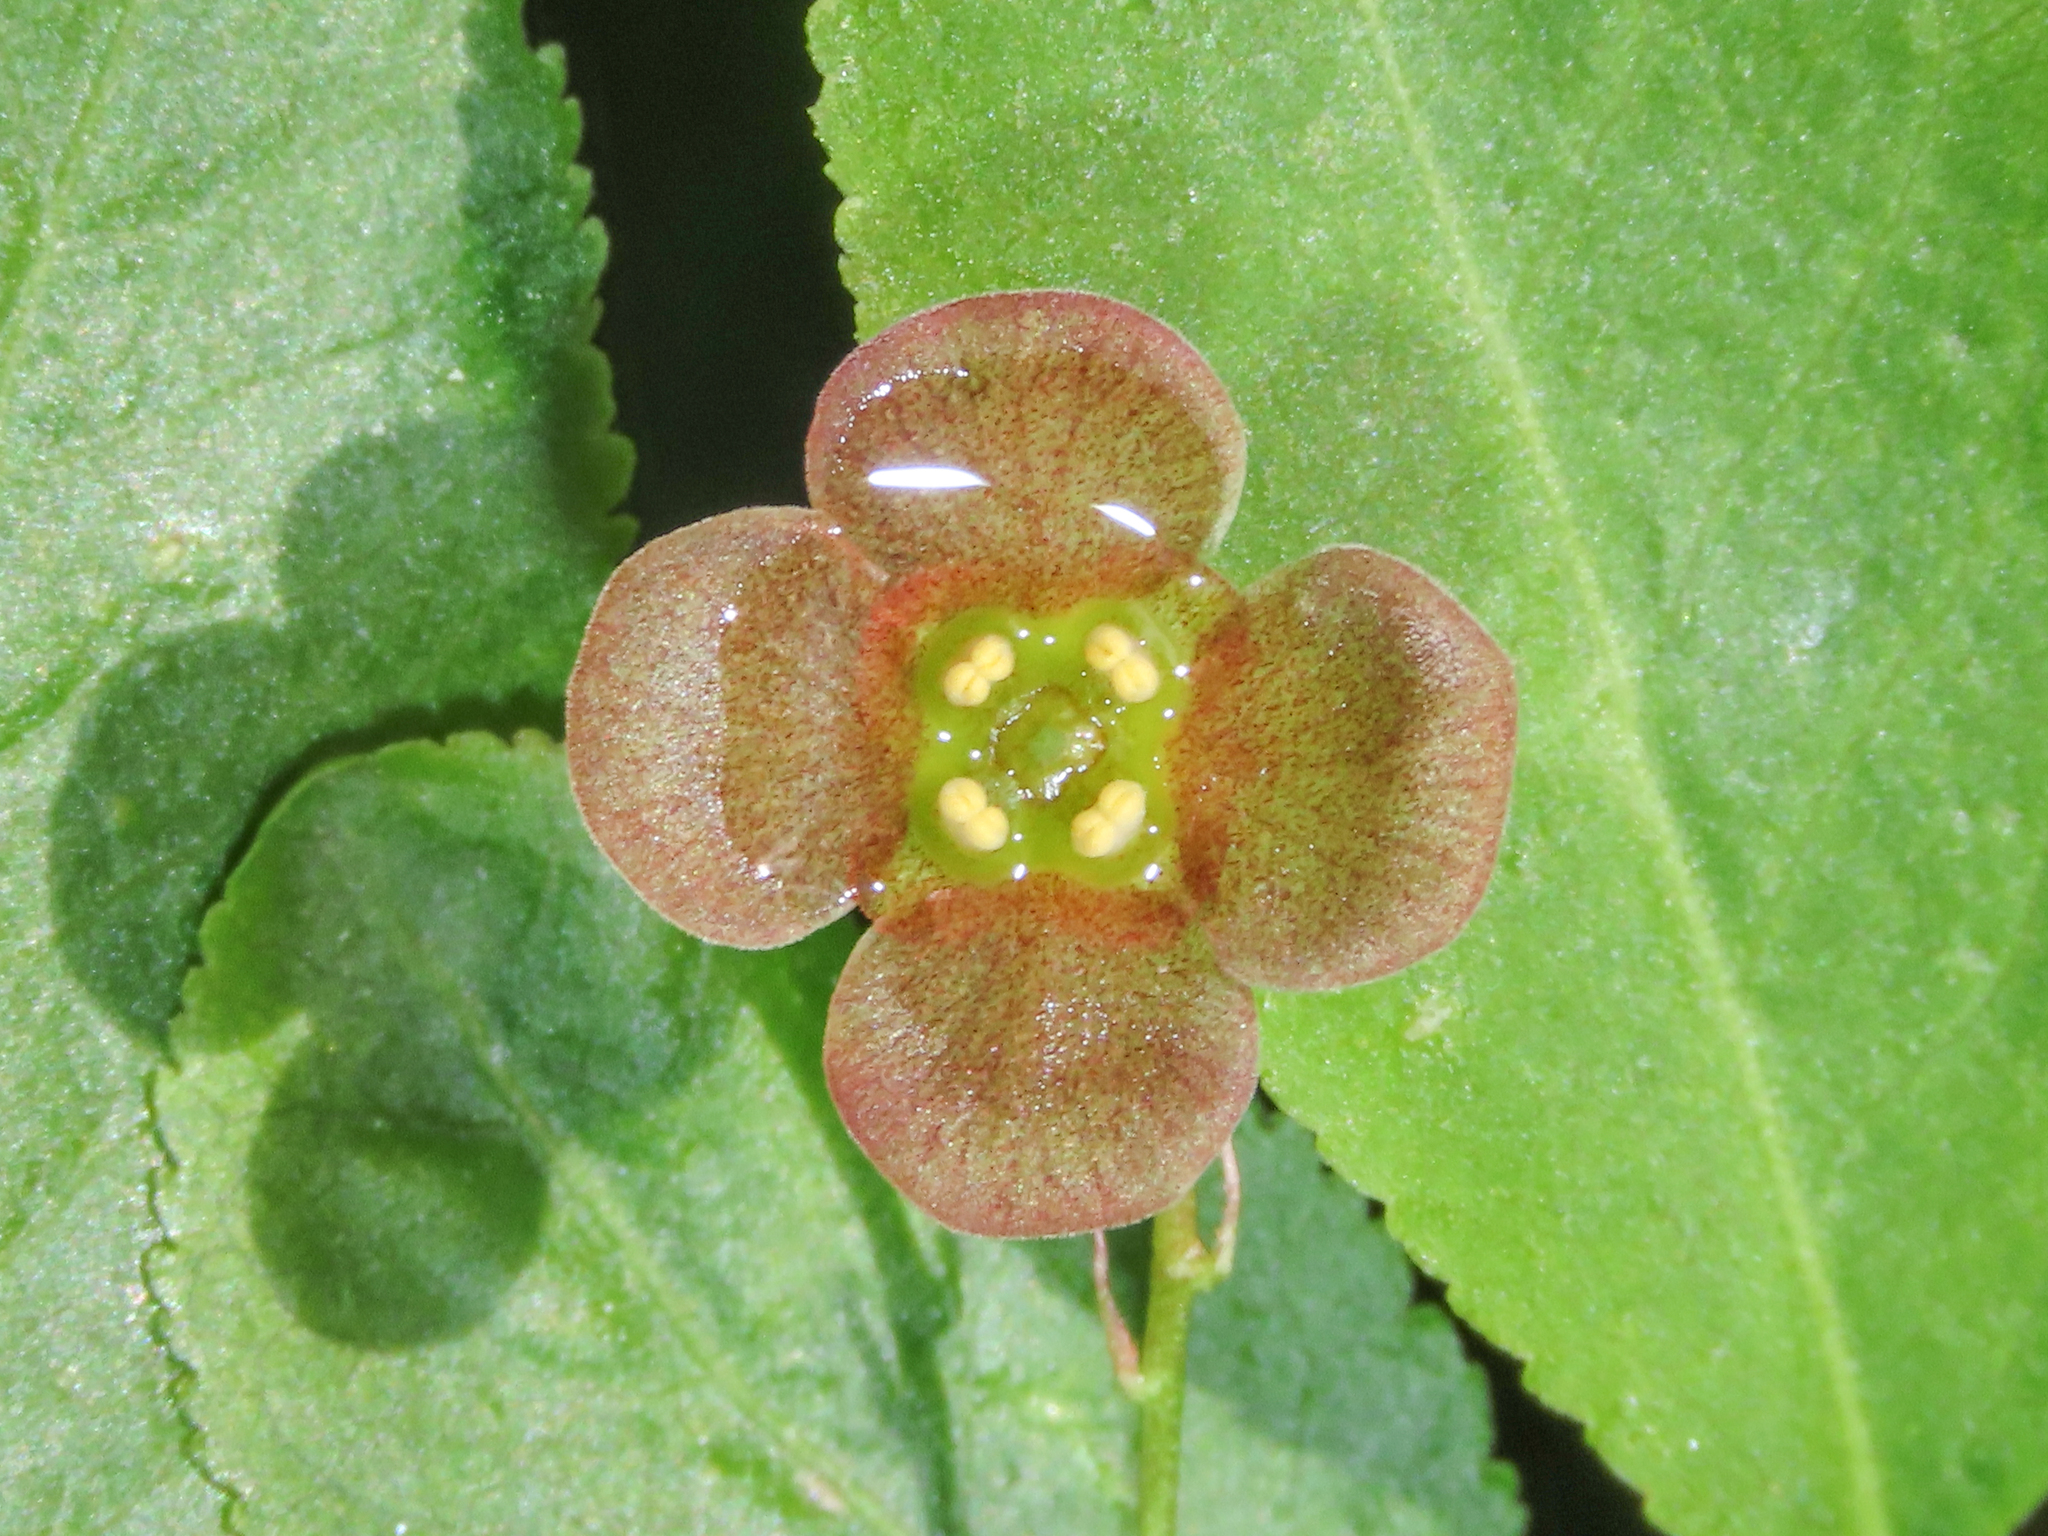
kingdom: Plantae
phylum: Tracheophyta
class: Magnoliopsida
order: Celastrales
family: Celastraceae
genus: Euonymus
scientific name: Euonymus verrucosus
